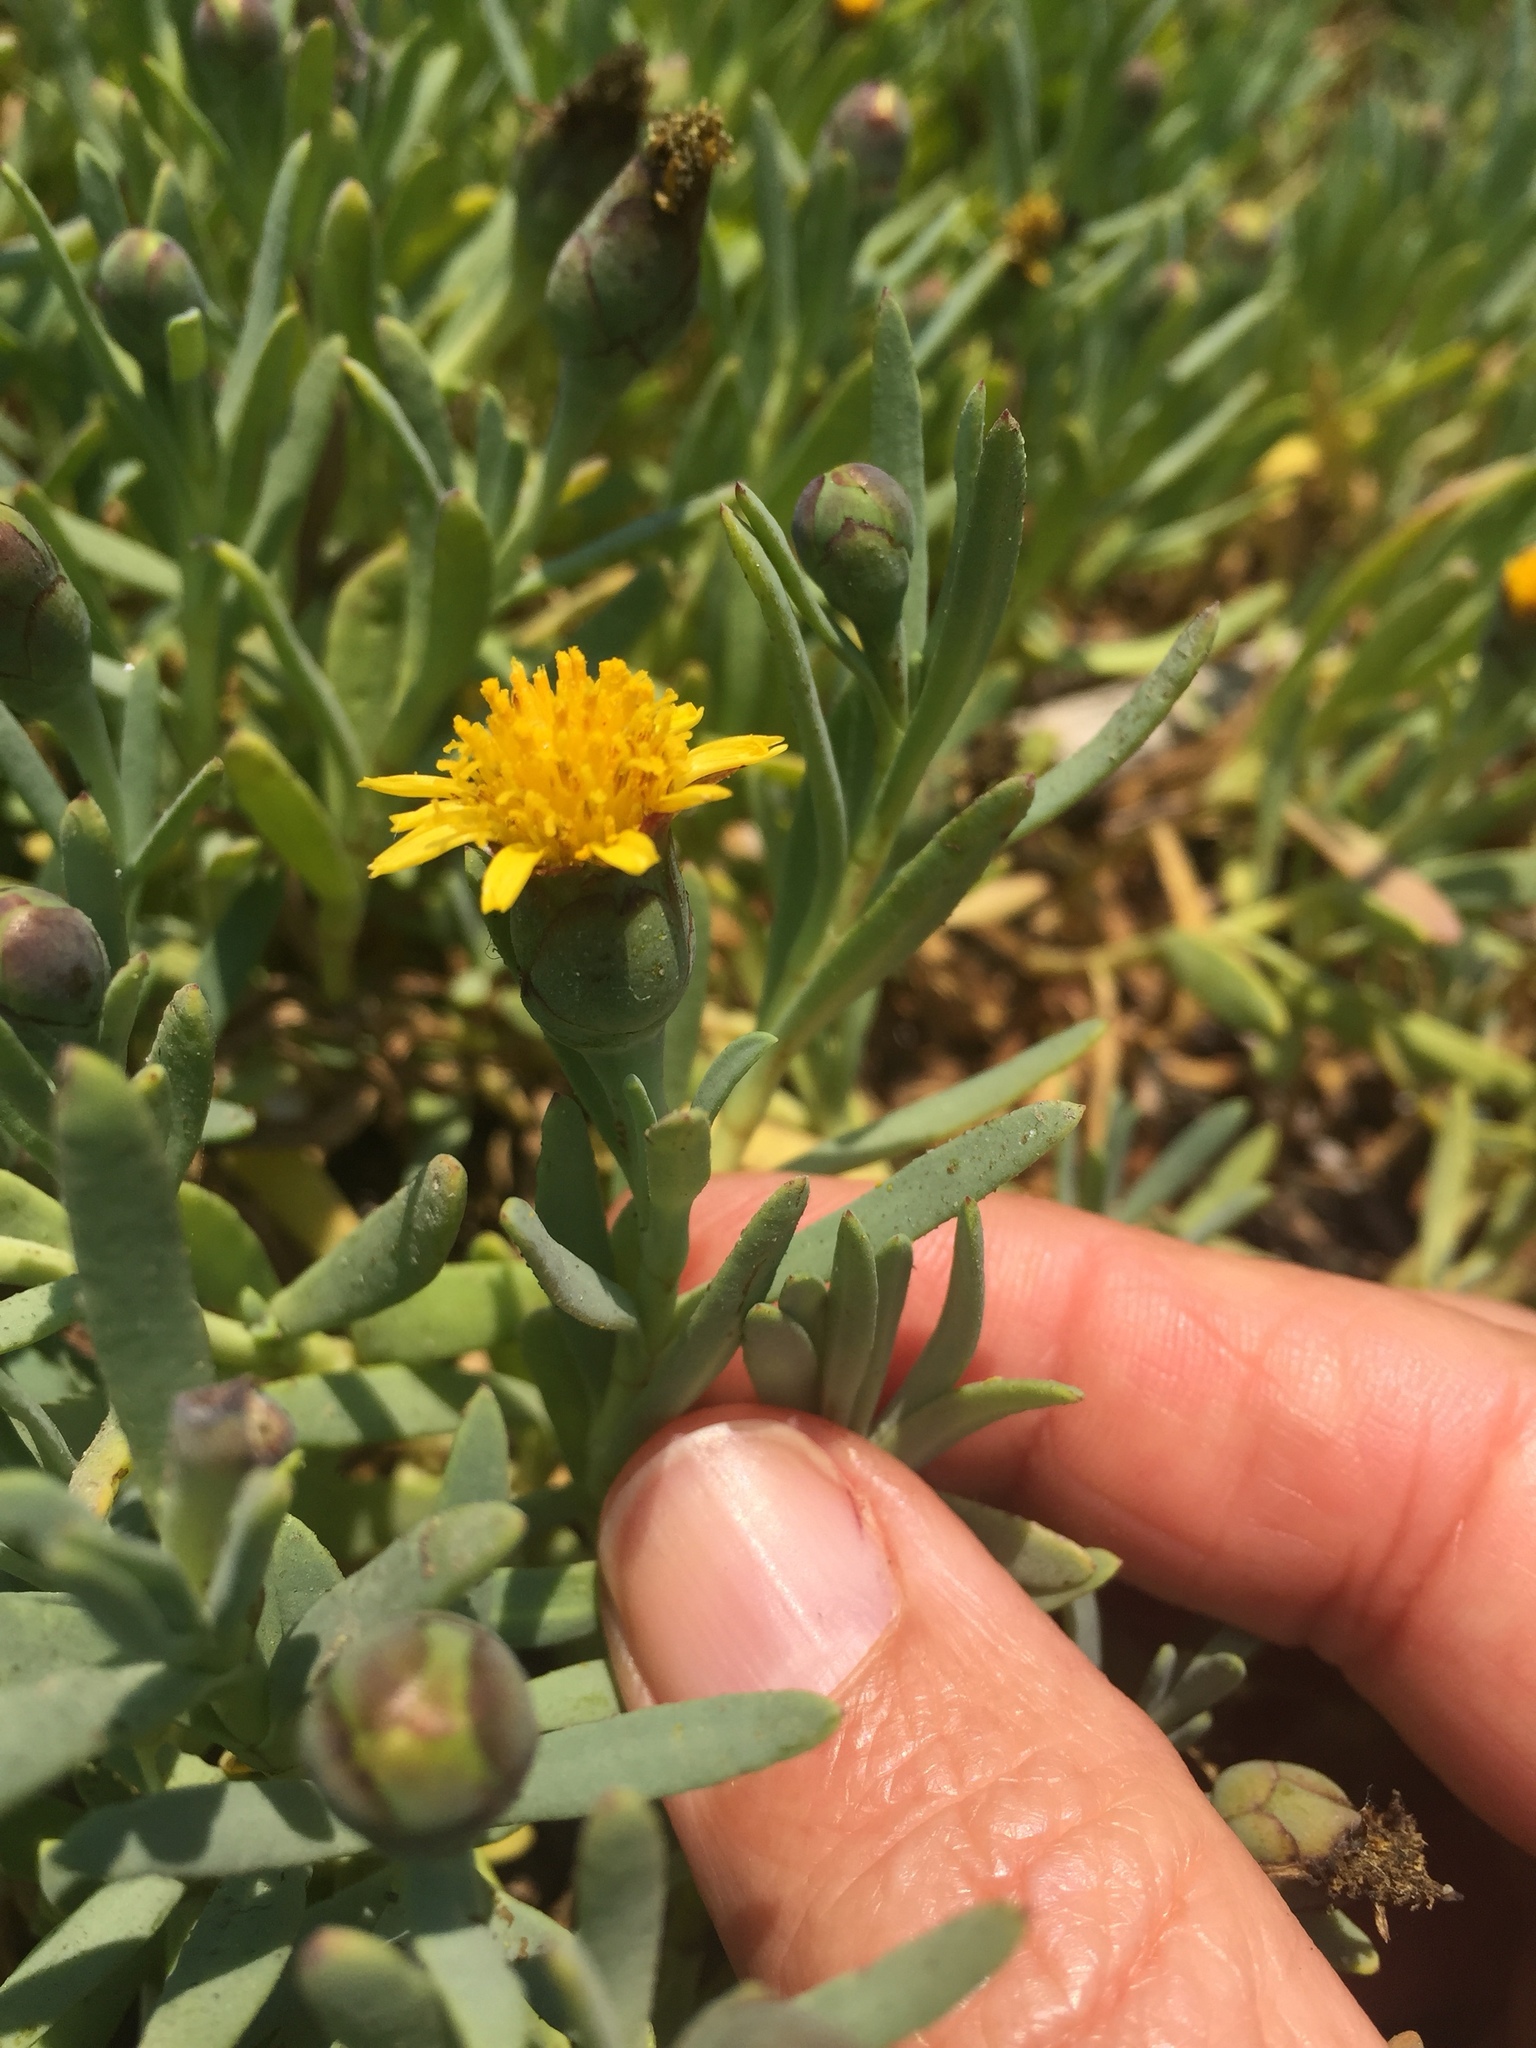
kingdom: Plantae
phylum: Tracheophyta
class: Magnoliopsida
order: Asterales
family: Asteraceae
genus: Jaumea
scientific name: Jaumea carnosa
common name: Fleshy jaumea
